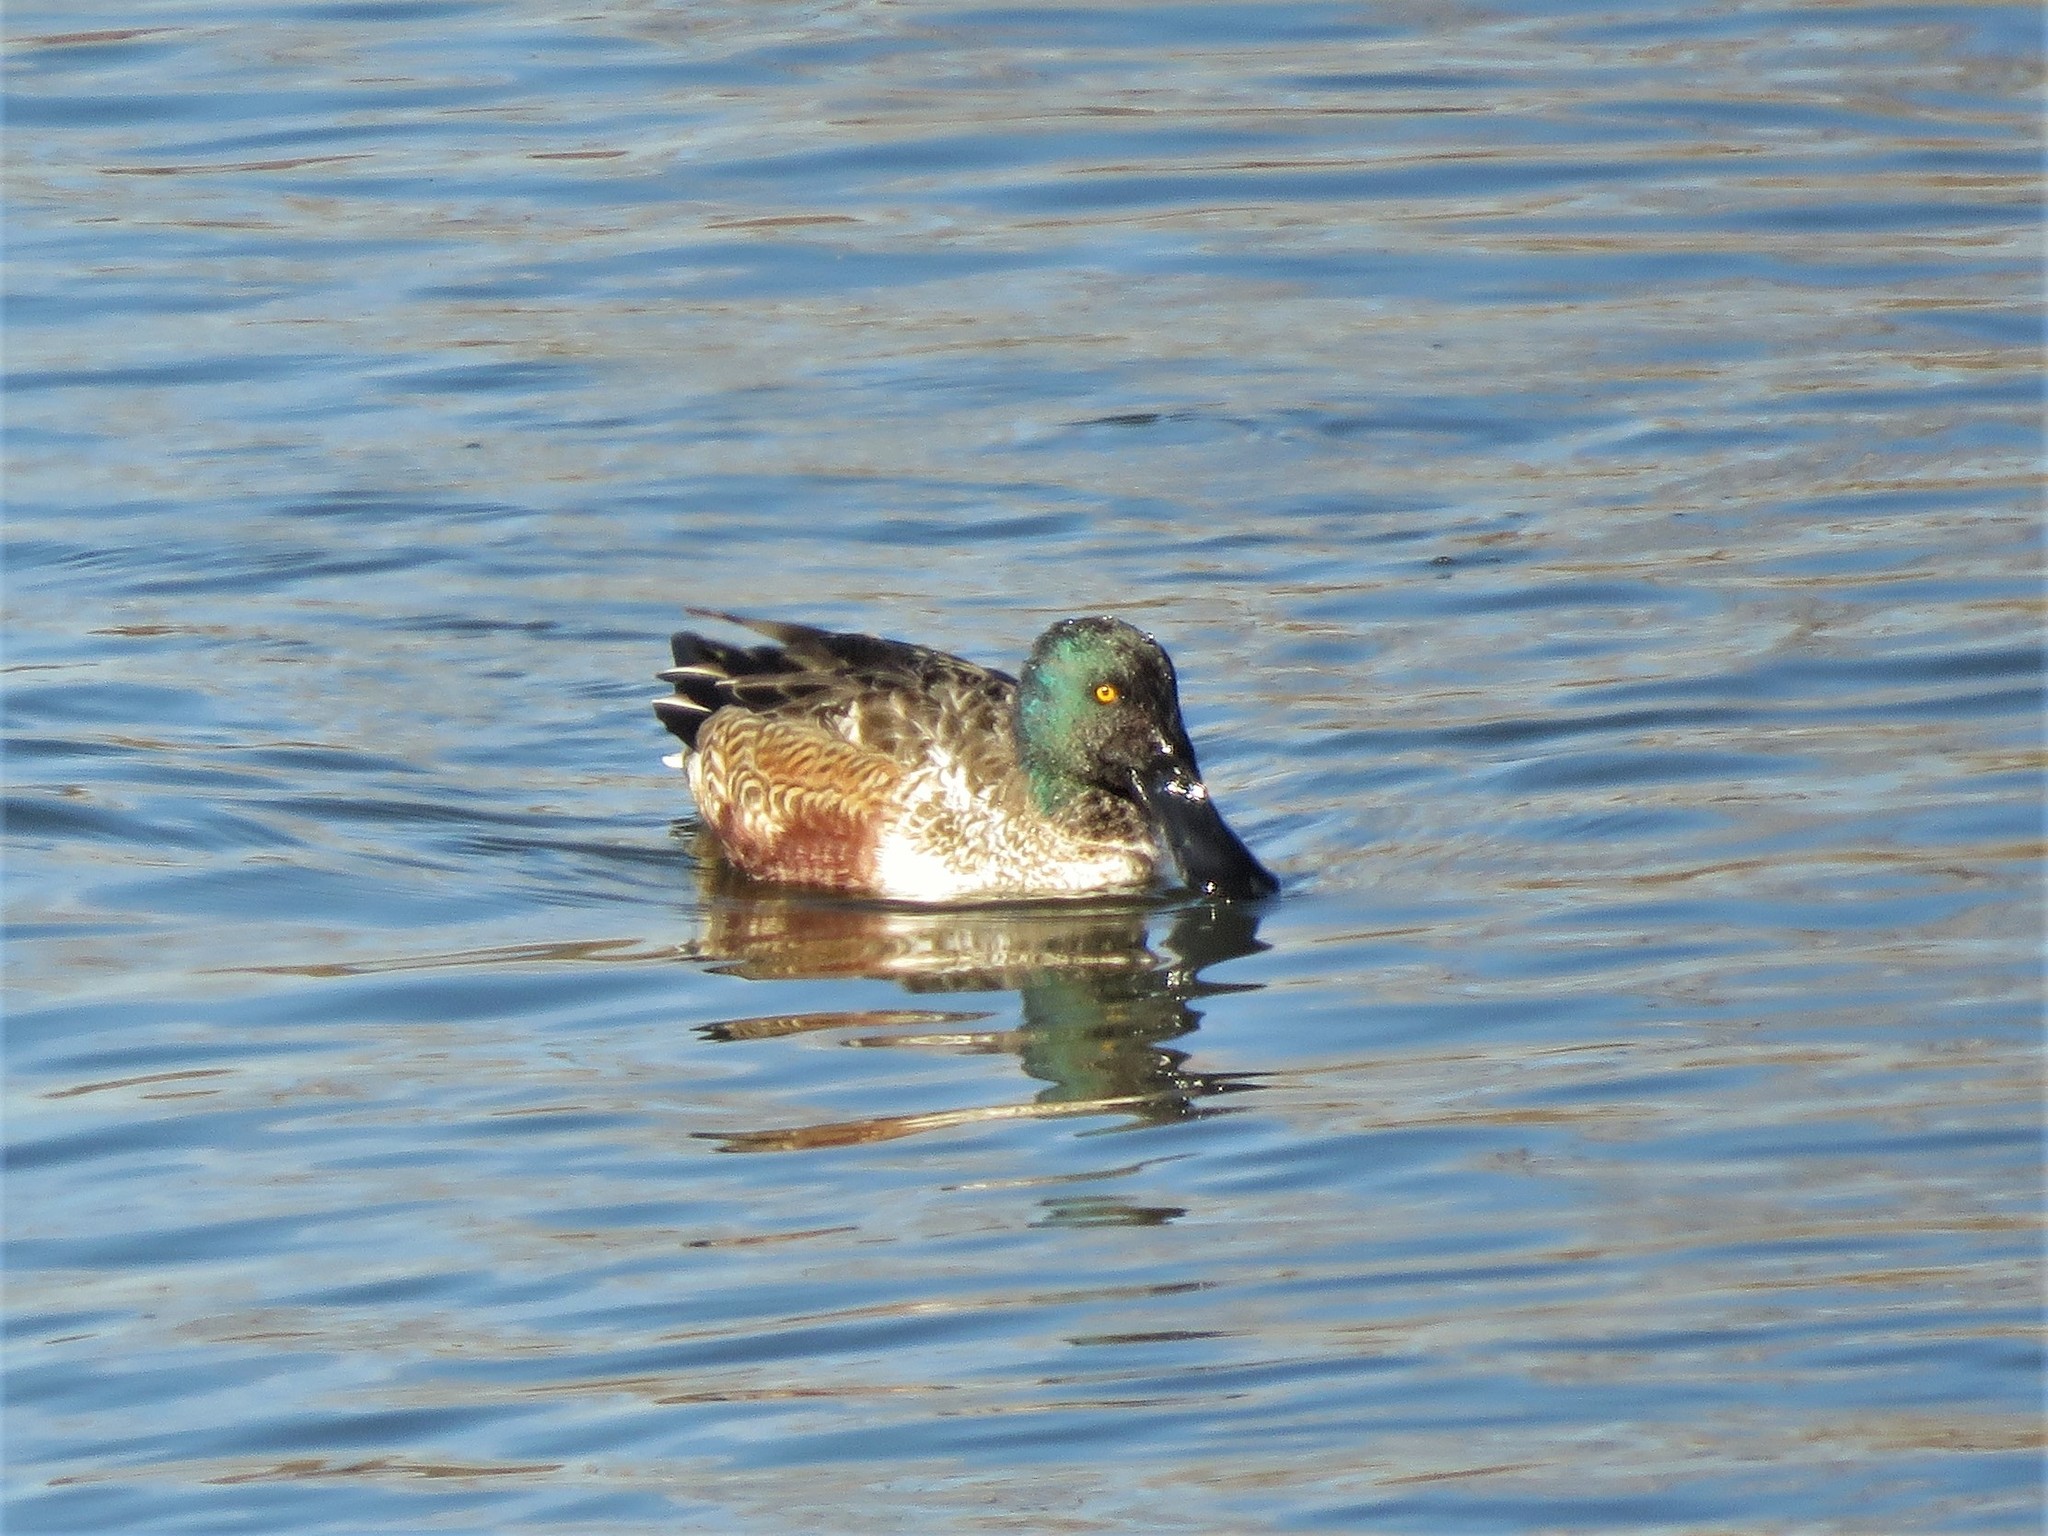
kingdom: Animalia
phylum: Chordata
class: Aves
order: Anseriformes
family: Anatidae
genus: Spatula
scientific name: Spatula clypeata
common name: Northern shoveler
